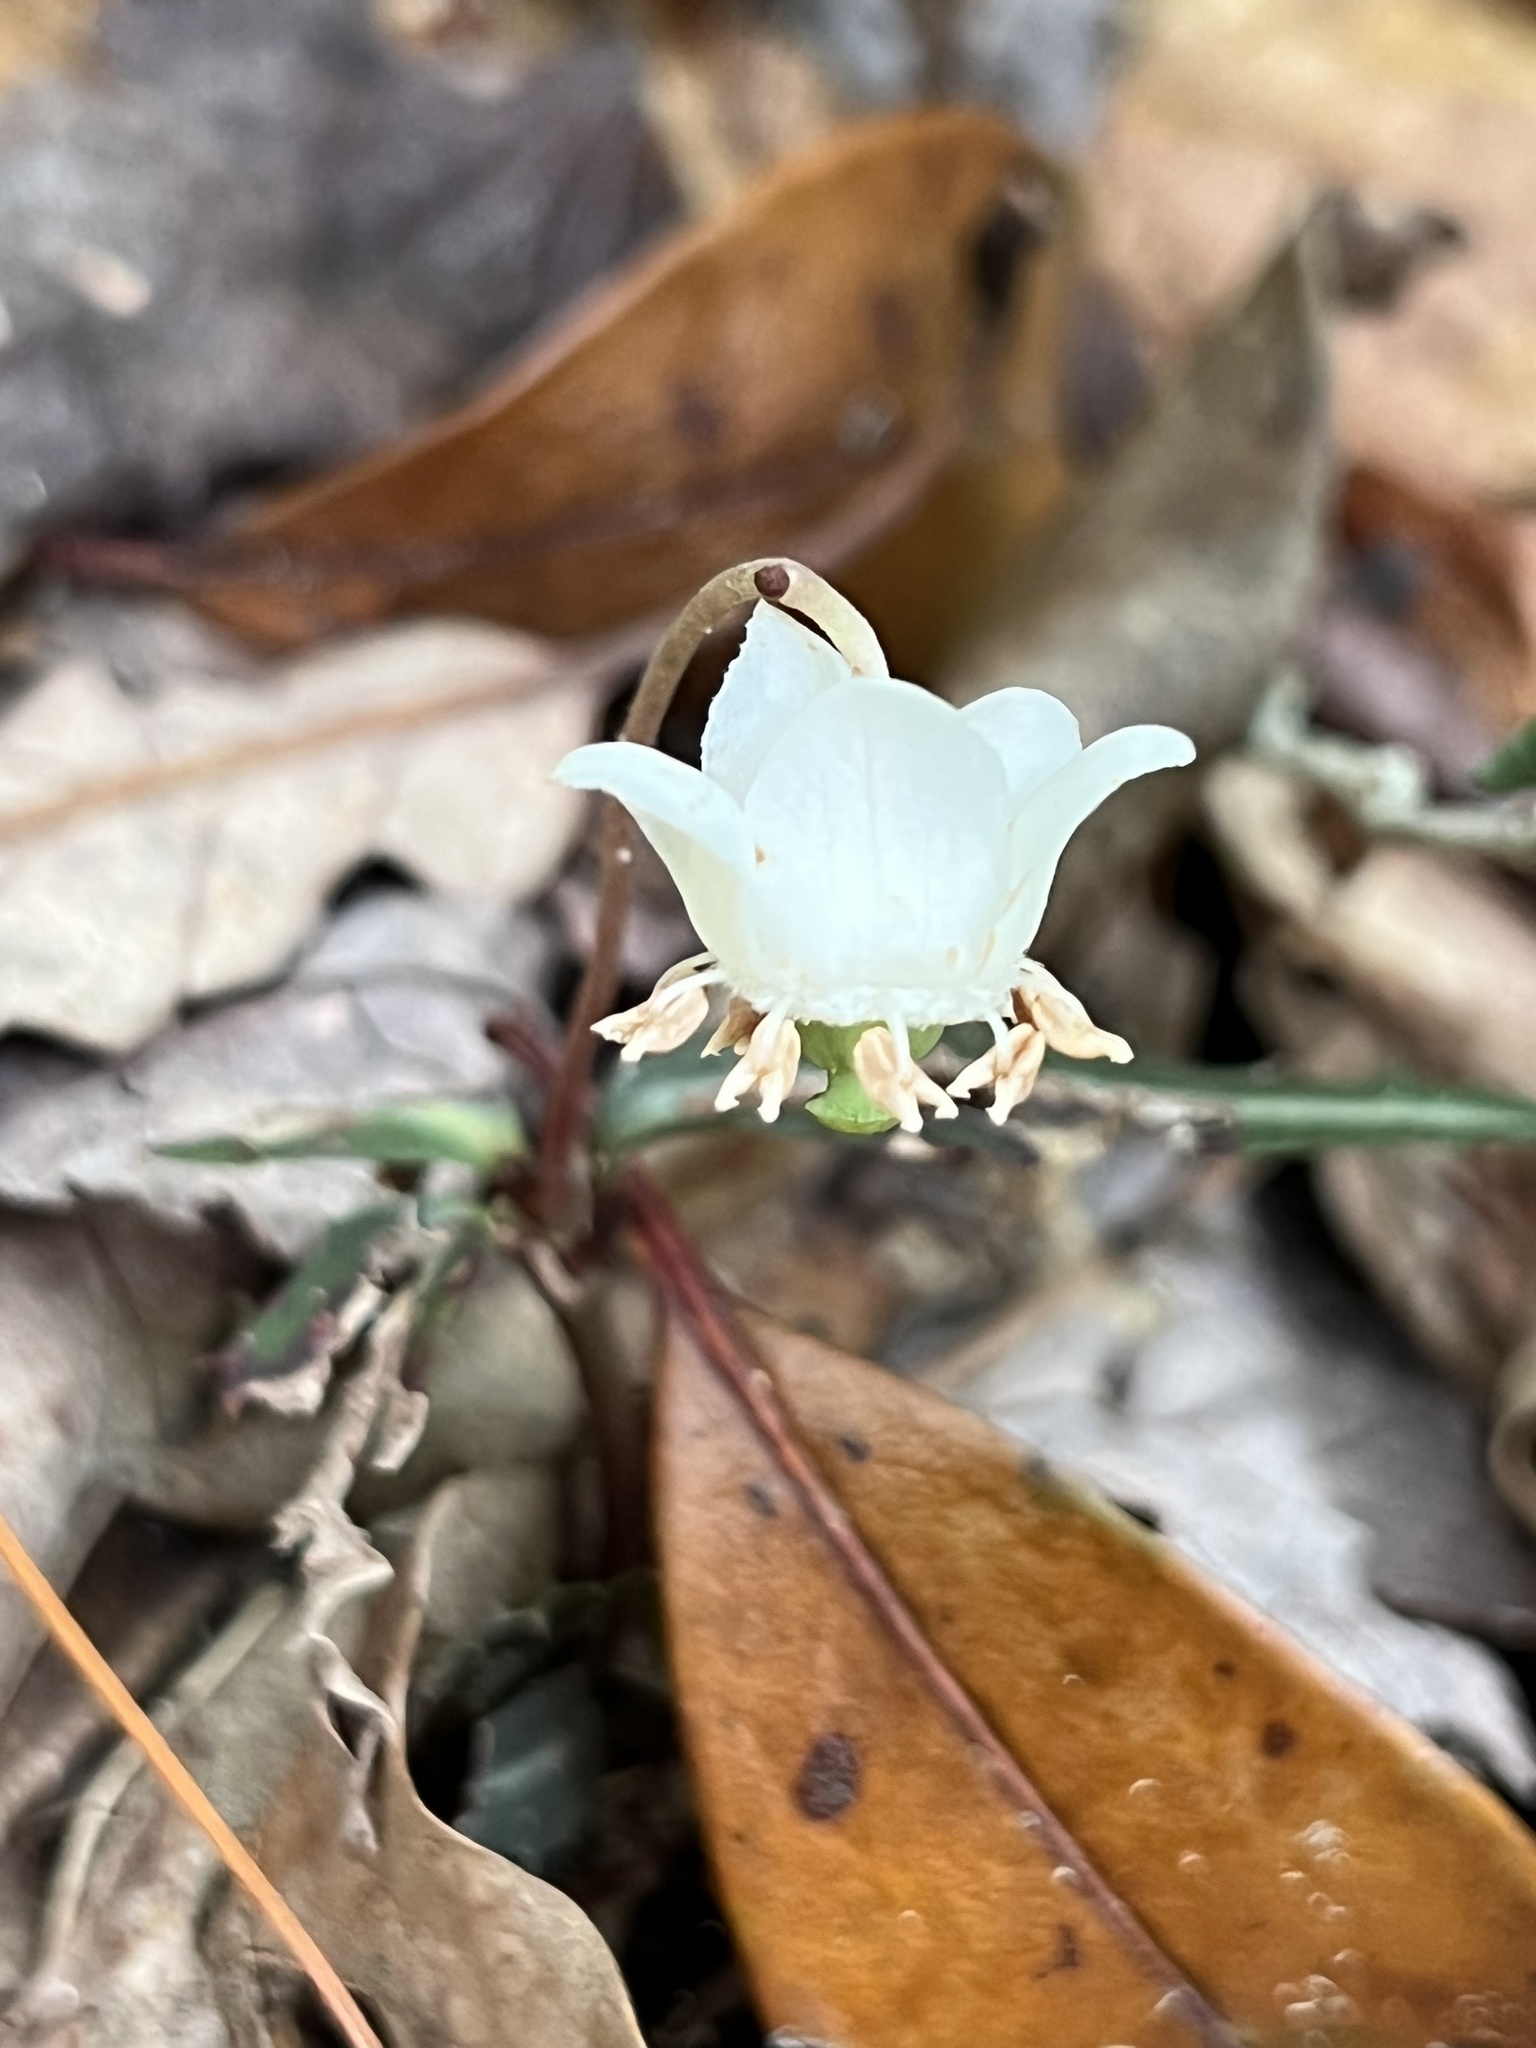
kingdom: Plantae
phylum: Tracheophyta
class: Magnoliopsida
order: Ericales
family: Ericaceae
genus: Chimaphila
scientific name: Chimaphila maculata
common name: Spotted pipsissewa
